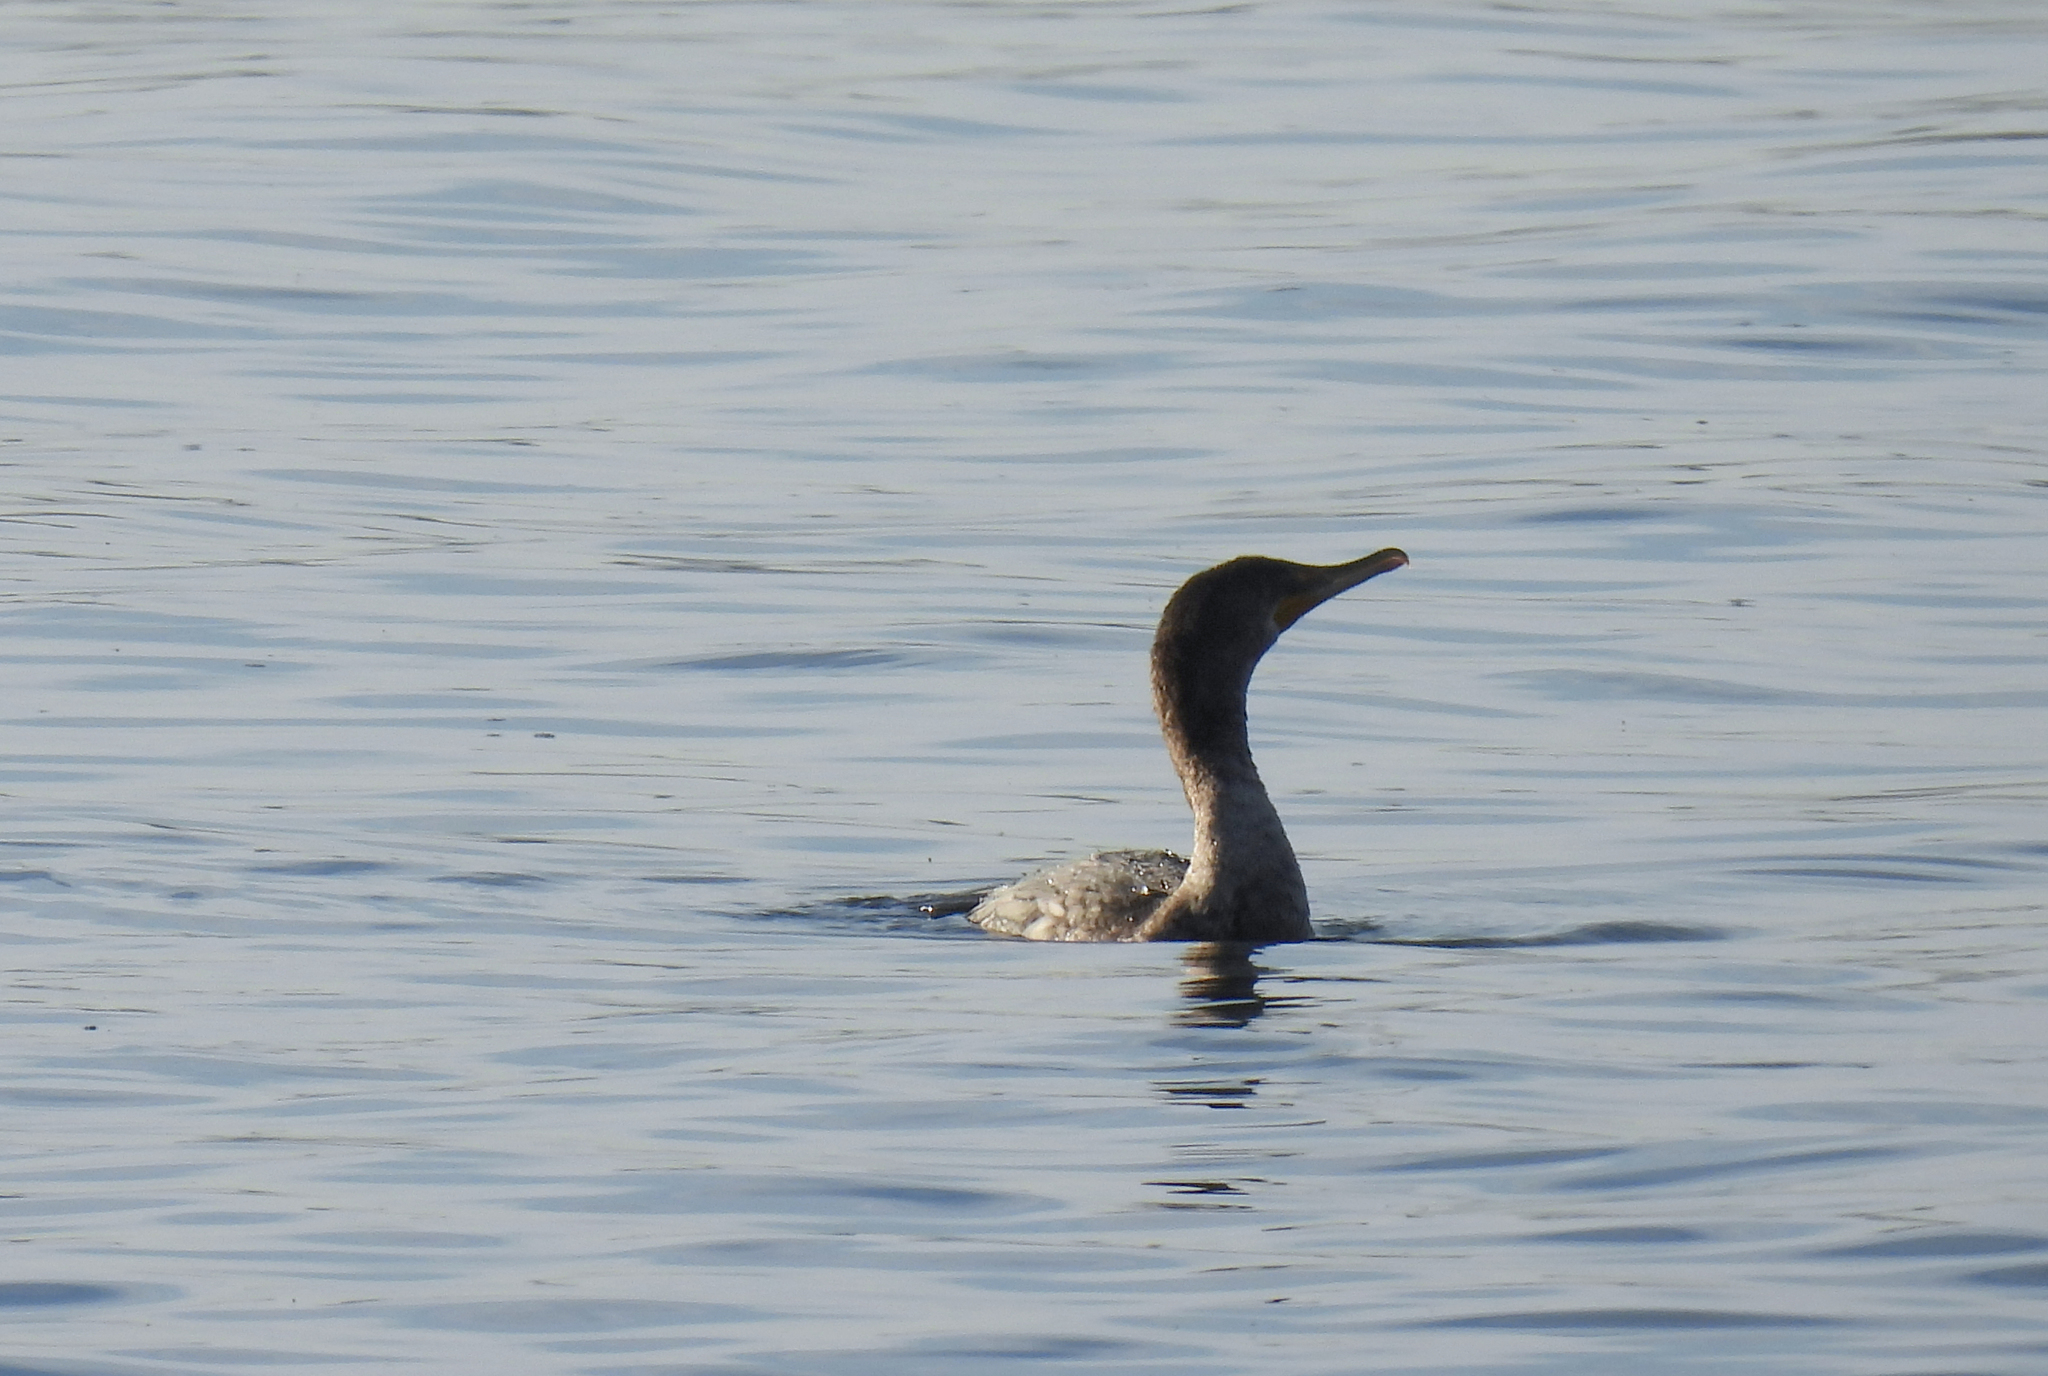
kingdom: Animalia
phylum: Chordata
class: Aves
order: Suliformes
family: Phalacrocoracidae
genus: Phalacrocorax
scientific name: Phalacrocorax auritus
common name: Double-crested cormorant
